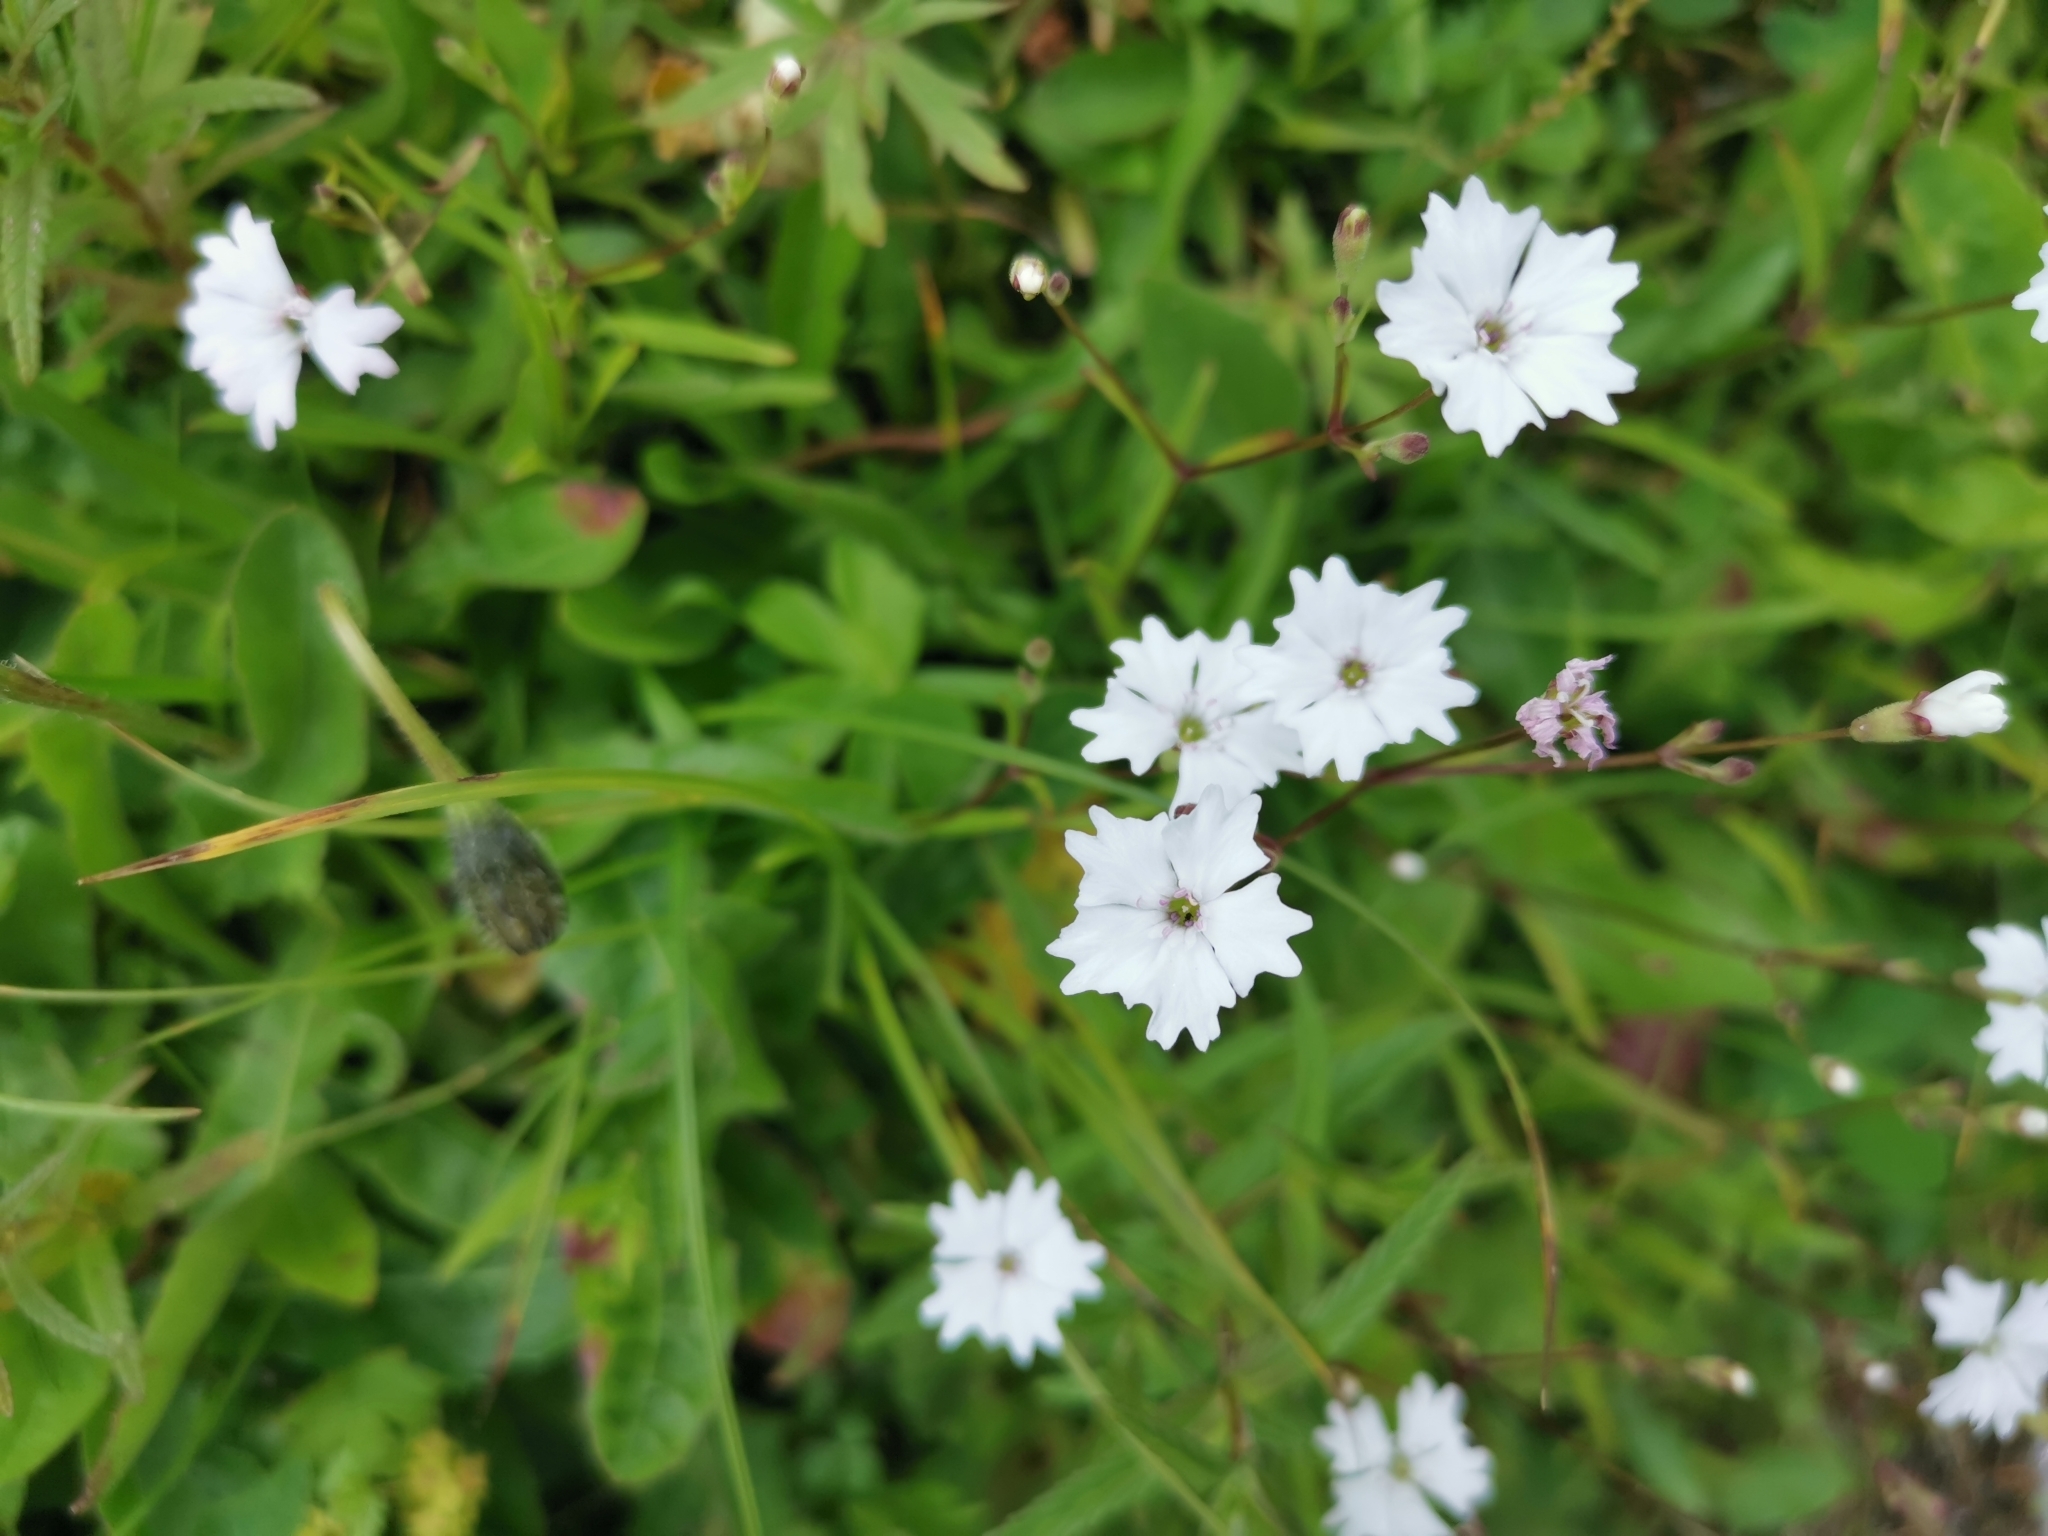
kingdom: Plantae
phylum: Tracheophyta
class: Magnoliopsida
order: Caryophyllales
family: Caryophyllaceae
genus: Heliosperma
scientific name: Heliosperma alpestre
